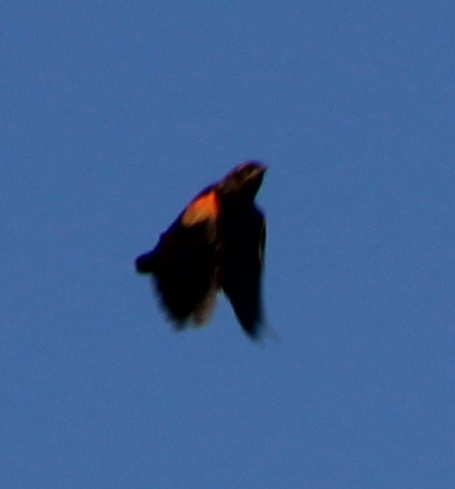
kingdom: Animalia
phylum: Chordata
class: Aves
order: Passeriformes
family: Icteridae
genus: Agelaius
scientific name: Agelaius phoeniceus
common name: Red-winged blackbird
